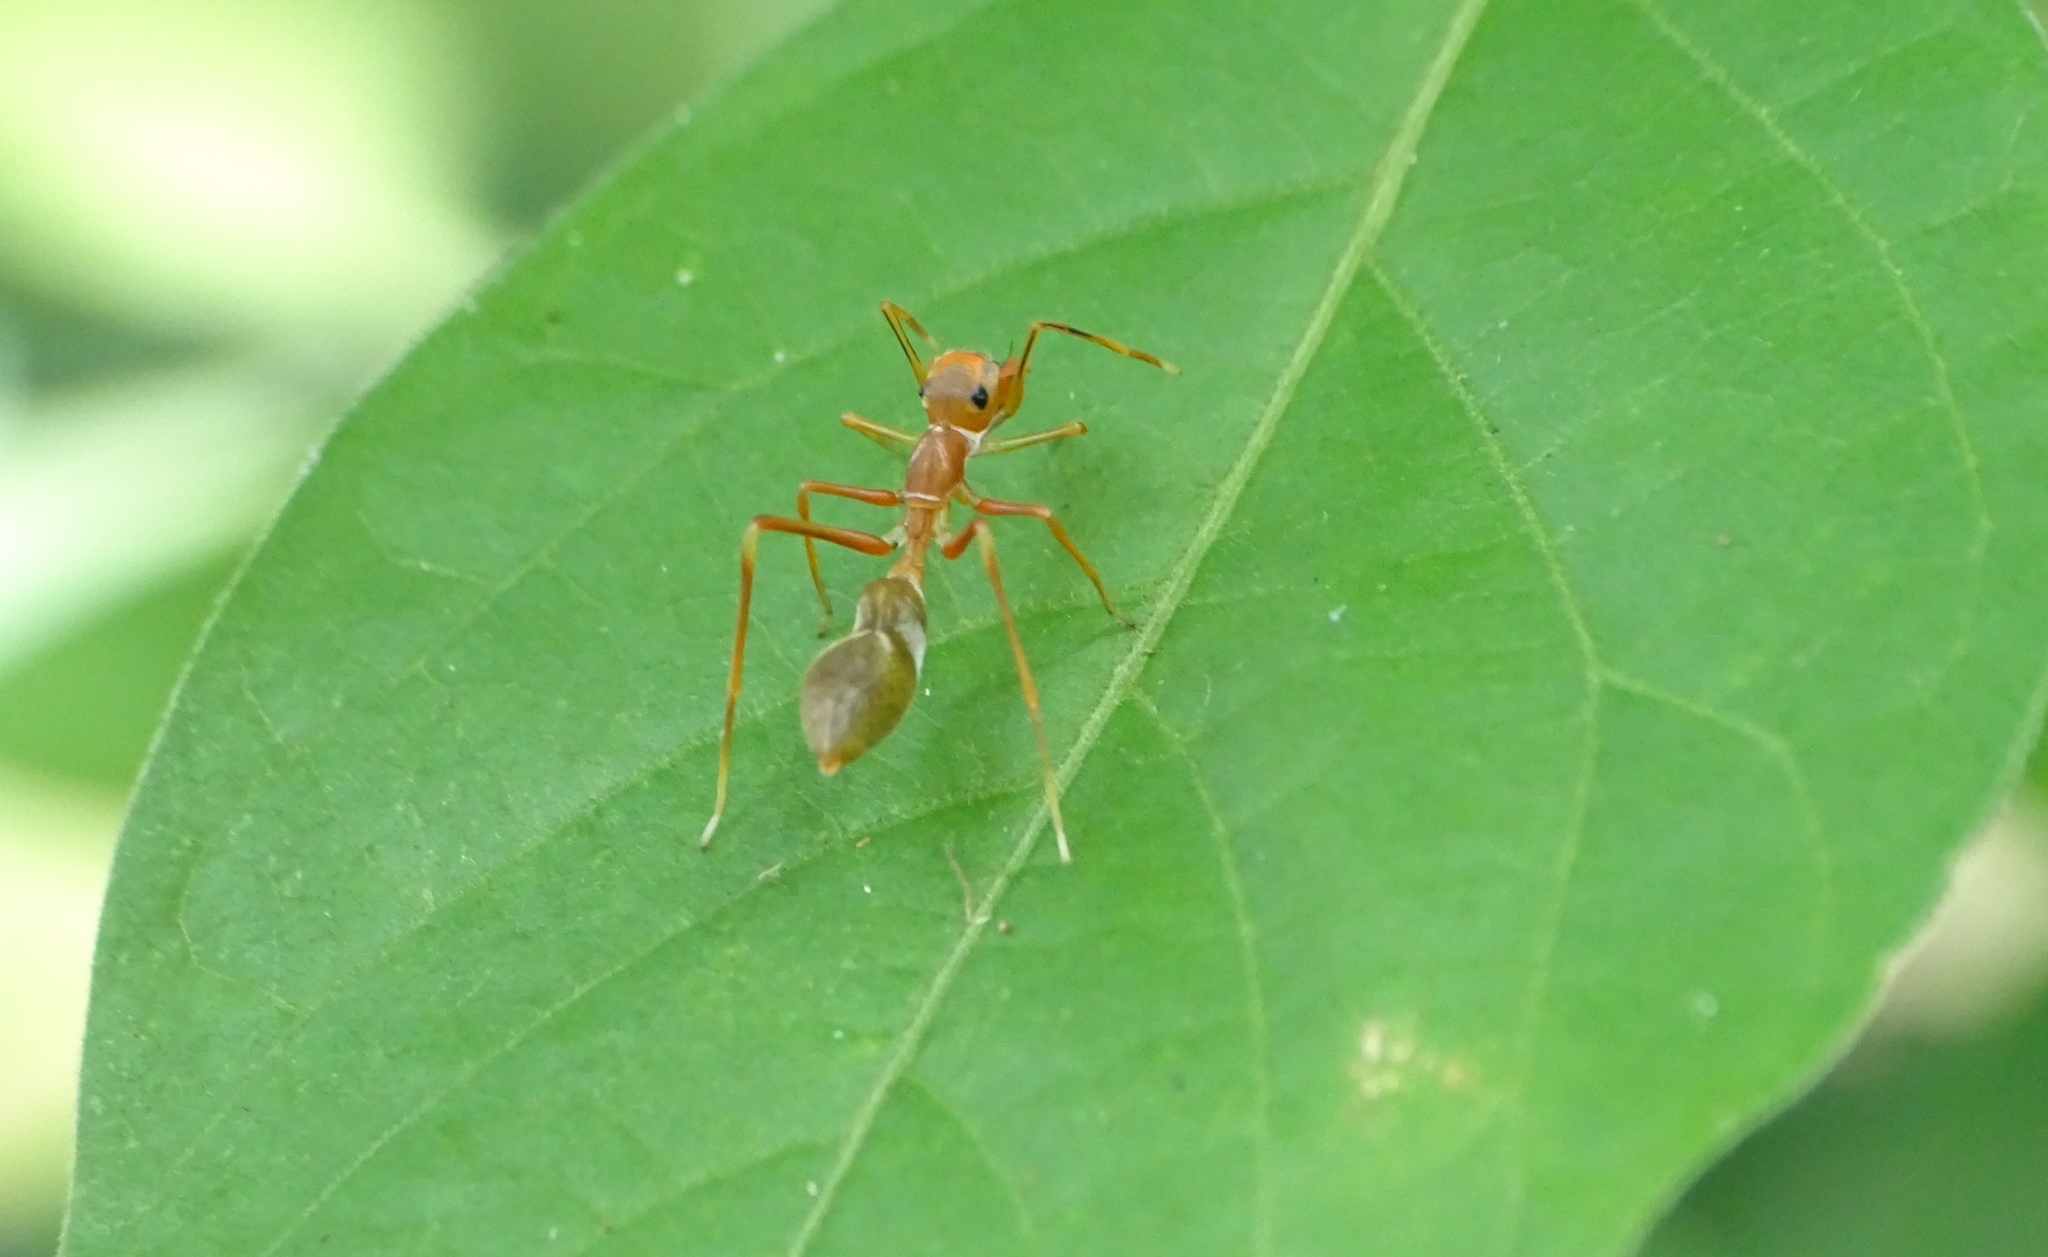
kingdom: Animalia
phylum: Arthropoda
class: Arachnida
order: Araneae
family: Salticidae
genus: Myrmaplata
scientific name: Myrmaplata plataleoides
